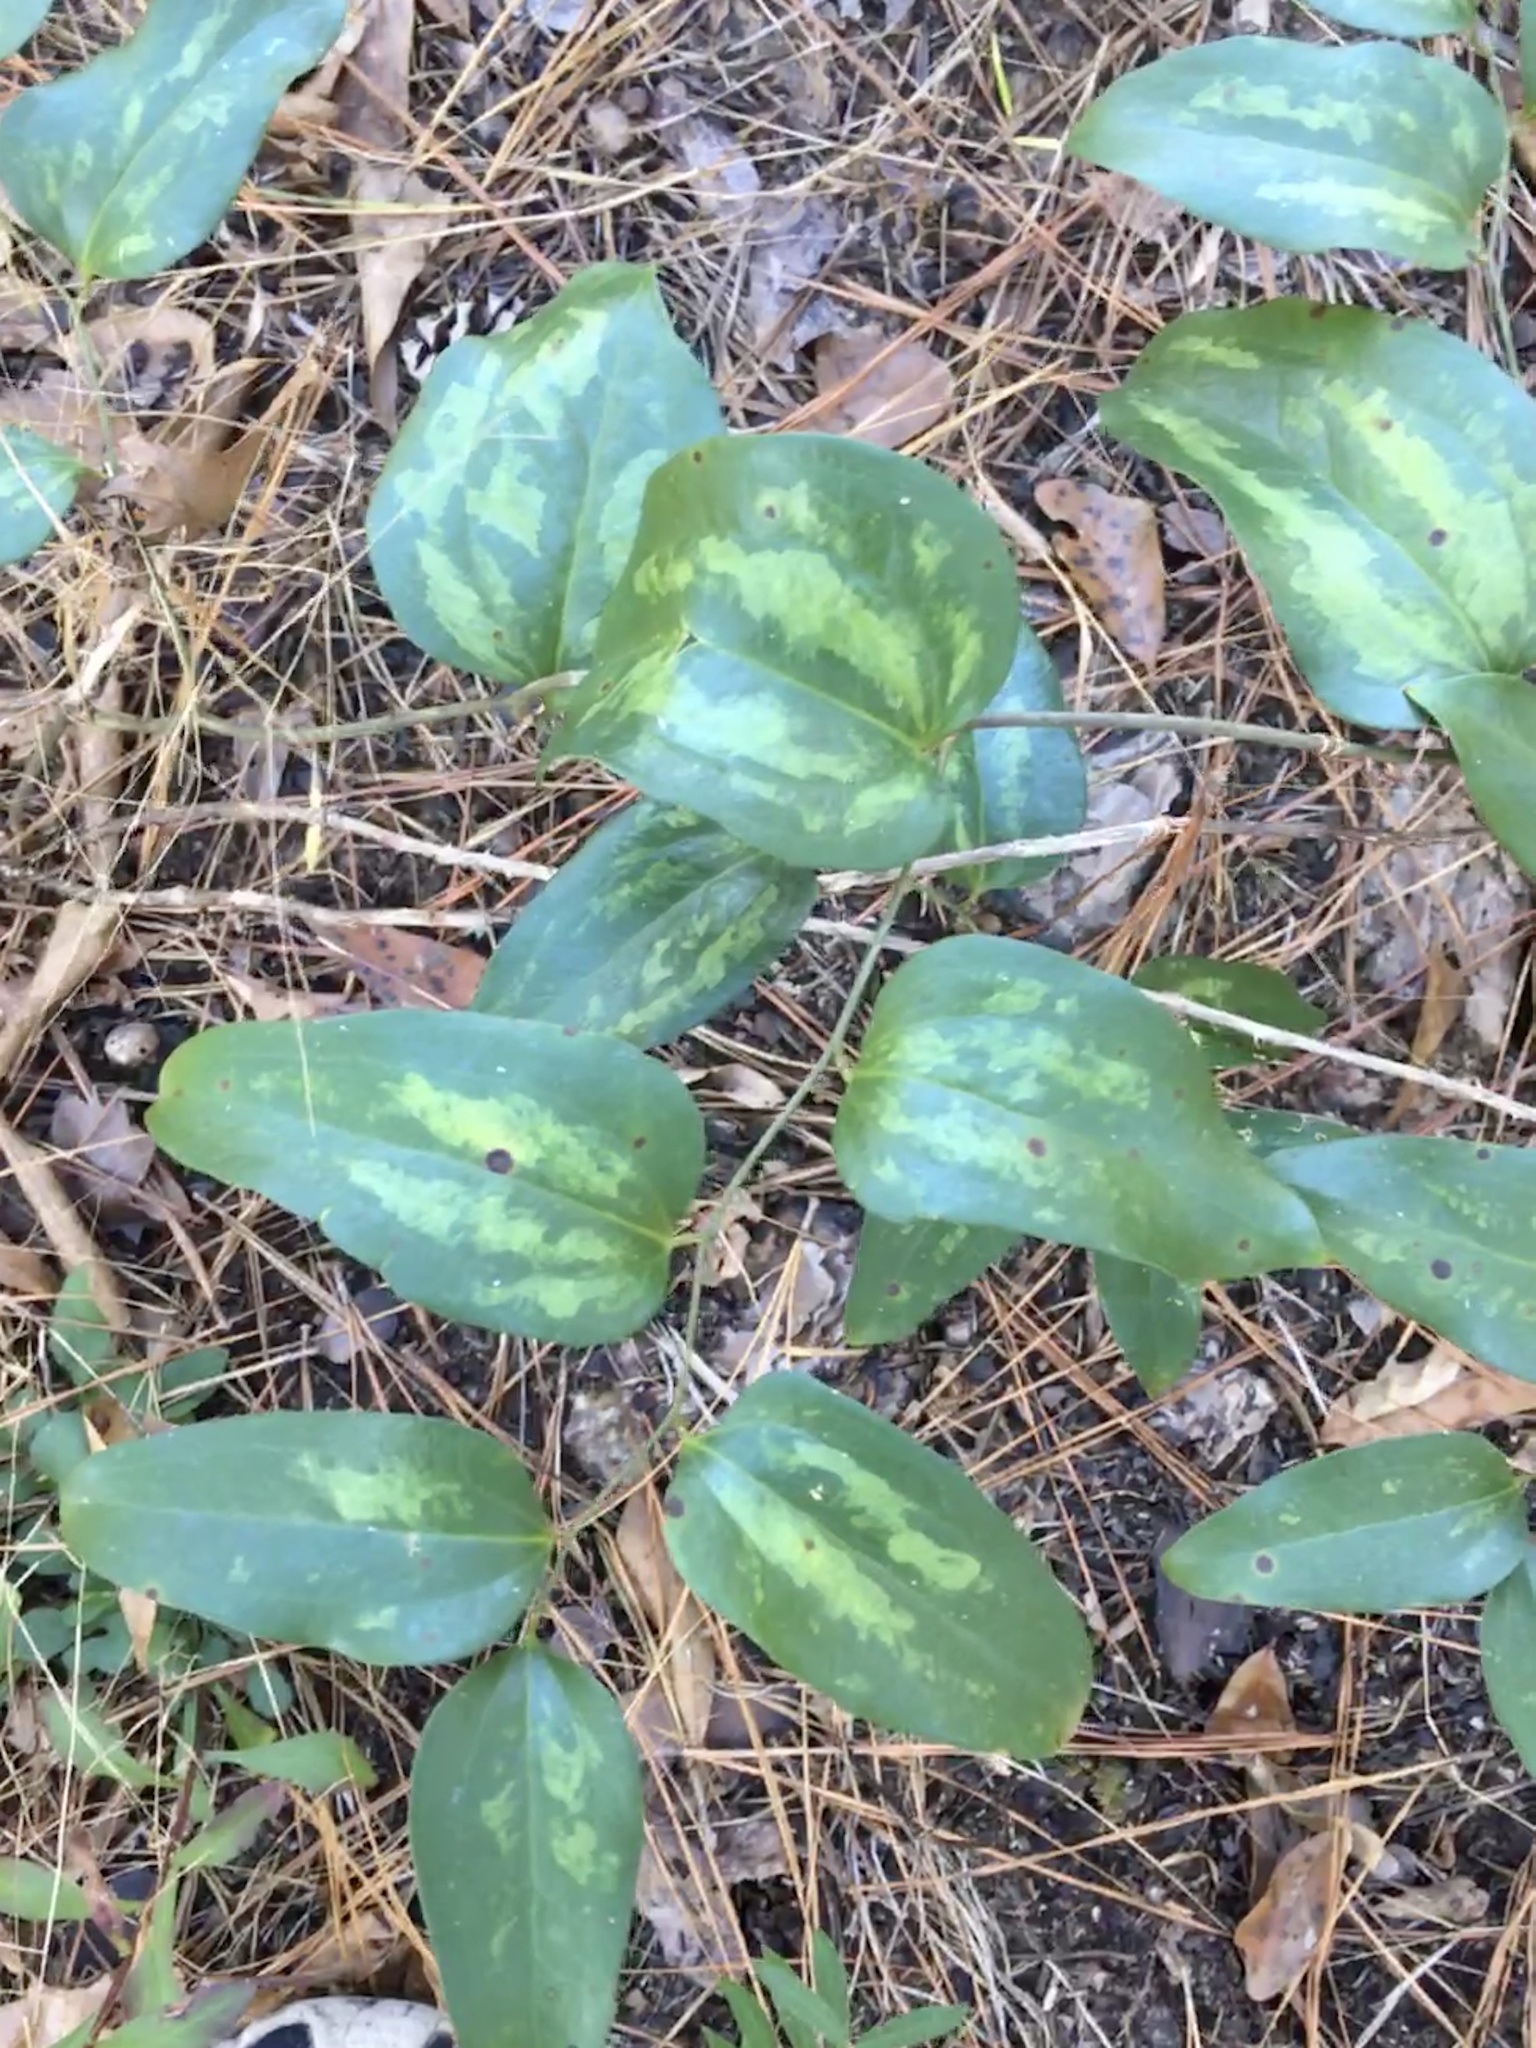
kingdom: Plantae
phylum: Tracheophyta
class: Liliopsida
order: Liliales
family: Smilacaceae
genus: Smilax
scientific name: Smilax glauca
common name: Cat greenbrier
